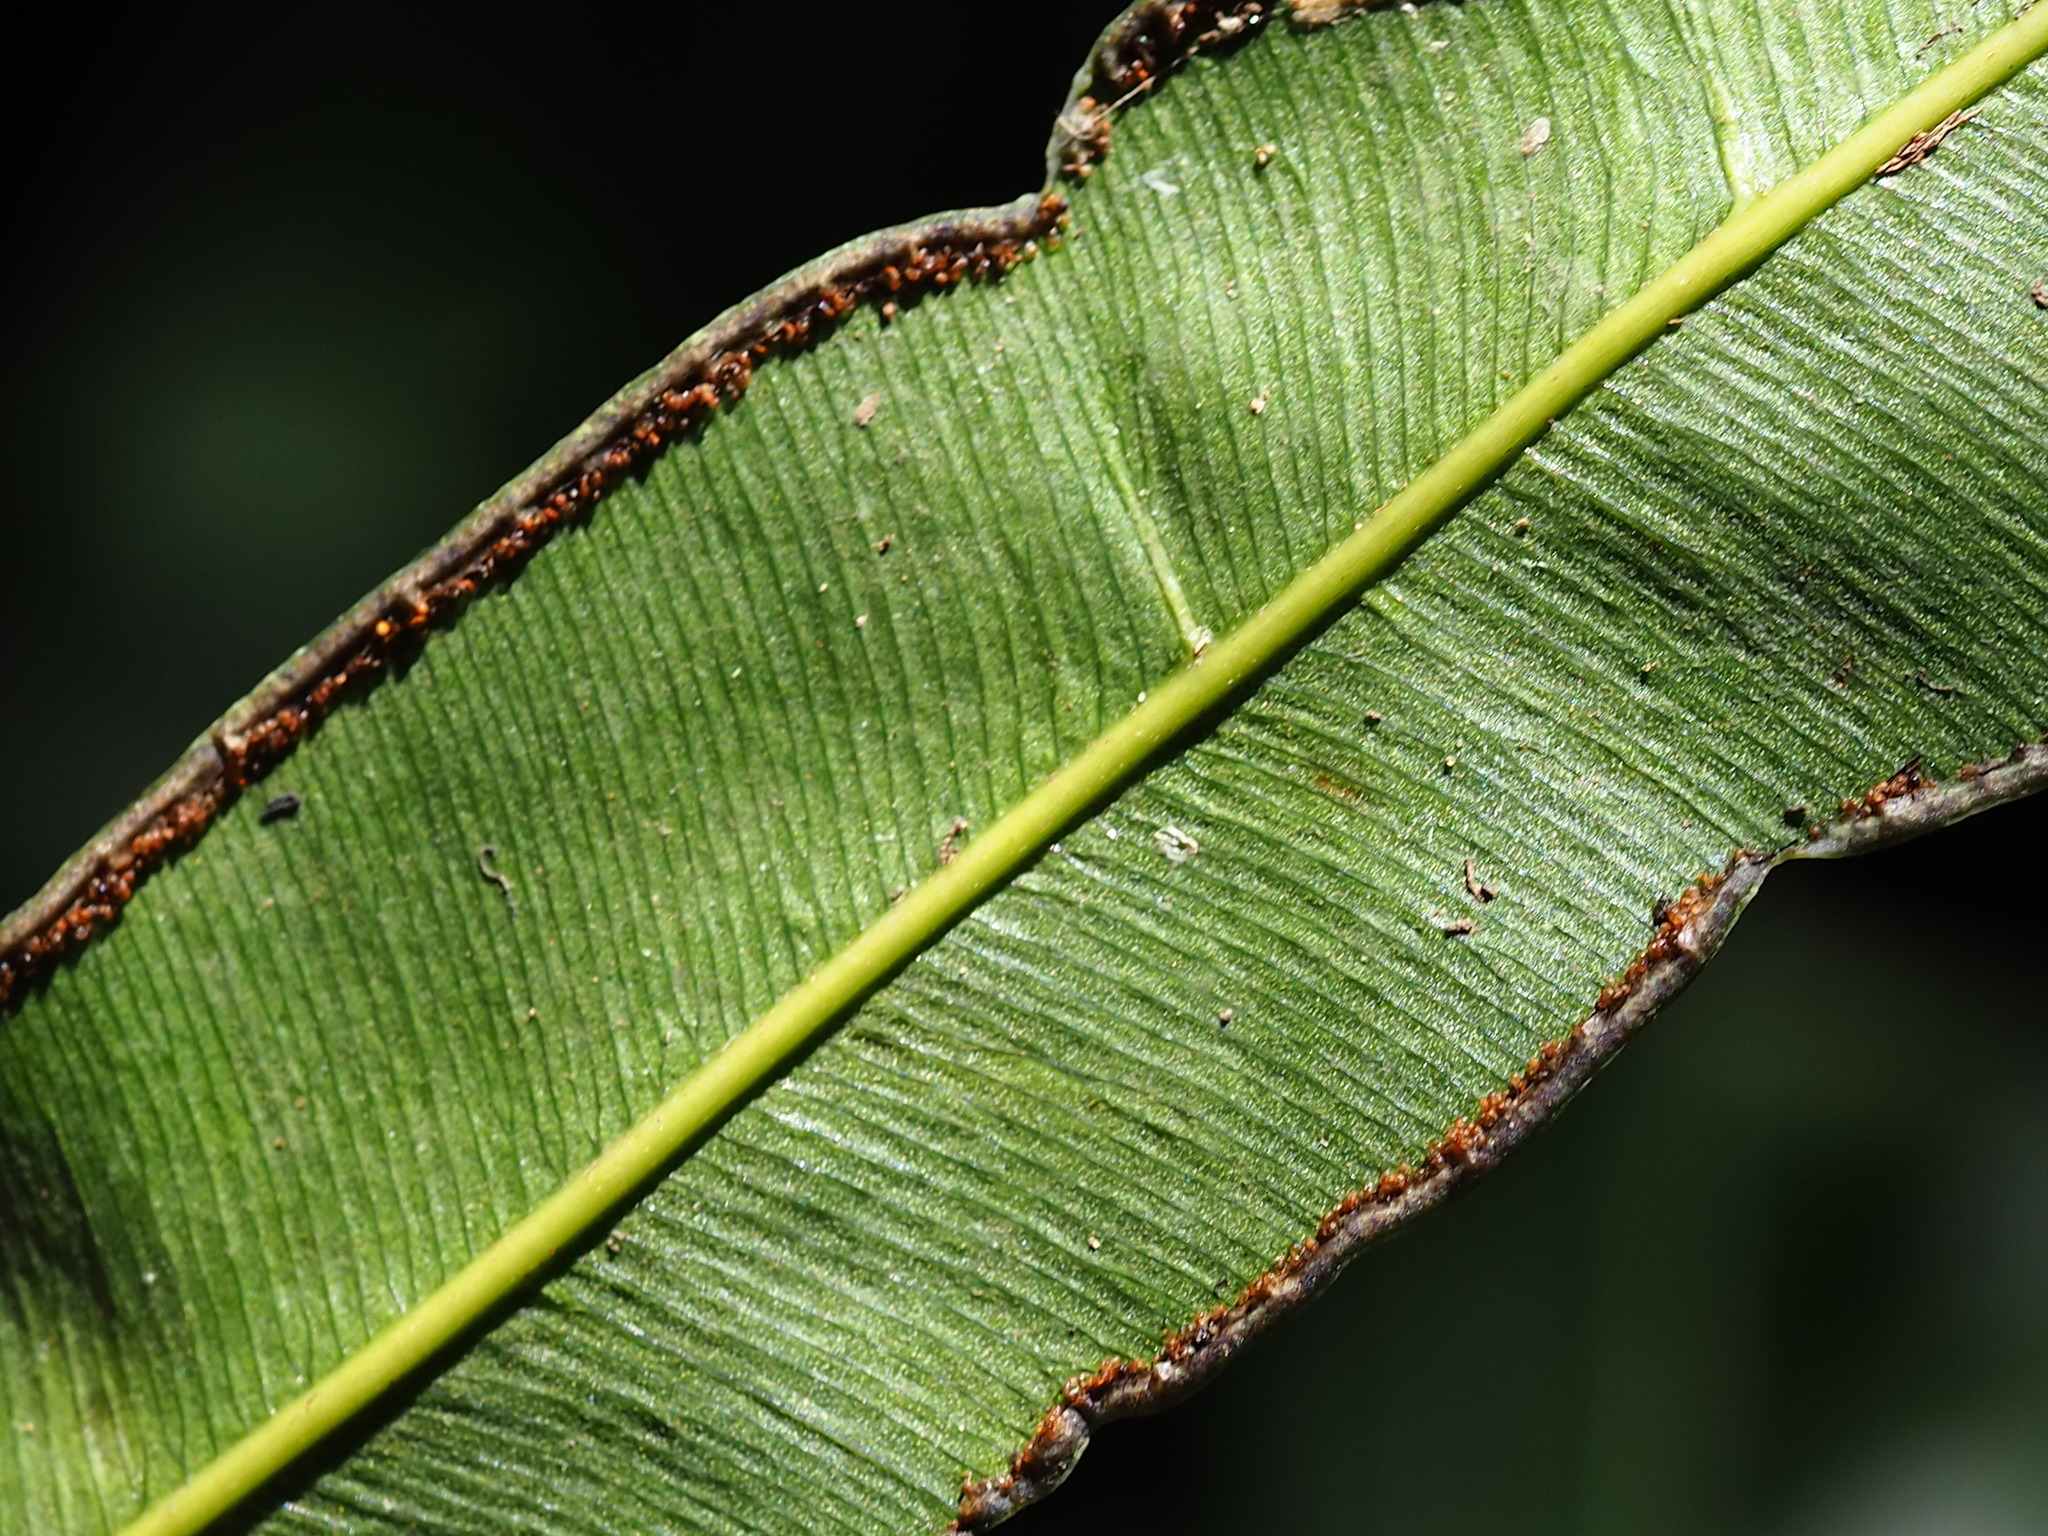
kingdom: Plantae
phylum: Tracheophyta
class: Polypodiopsida
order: Polypodiales
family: Pteridaceae
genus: Pteris
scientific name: Pteris venusta
